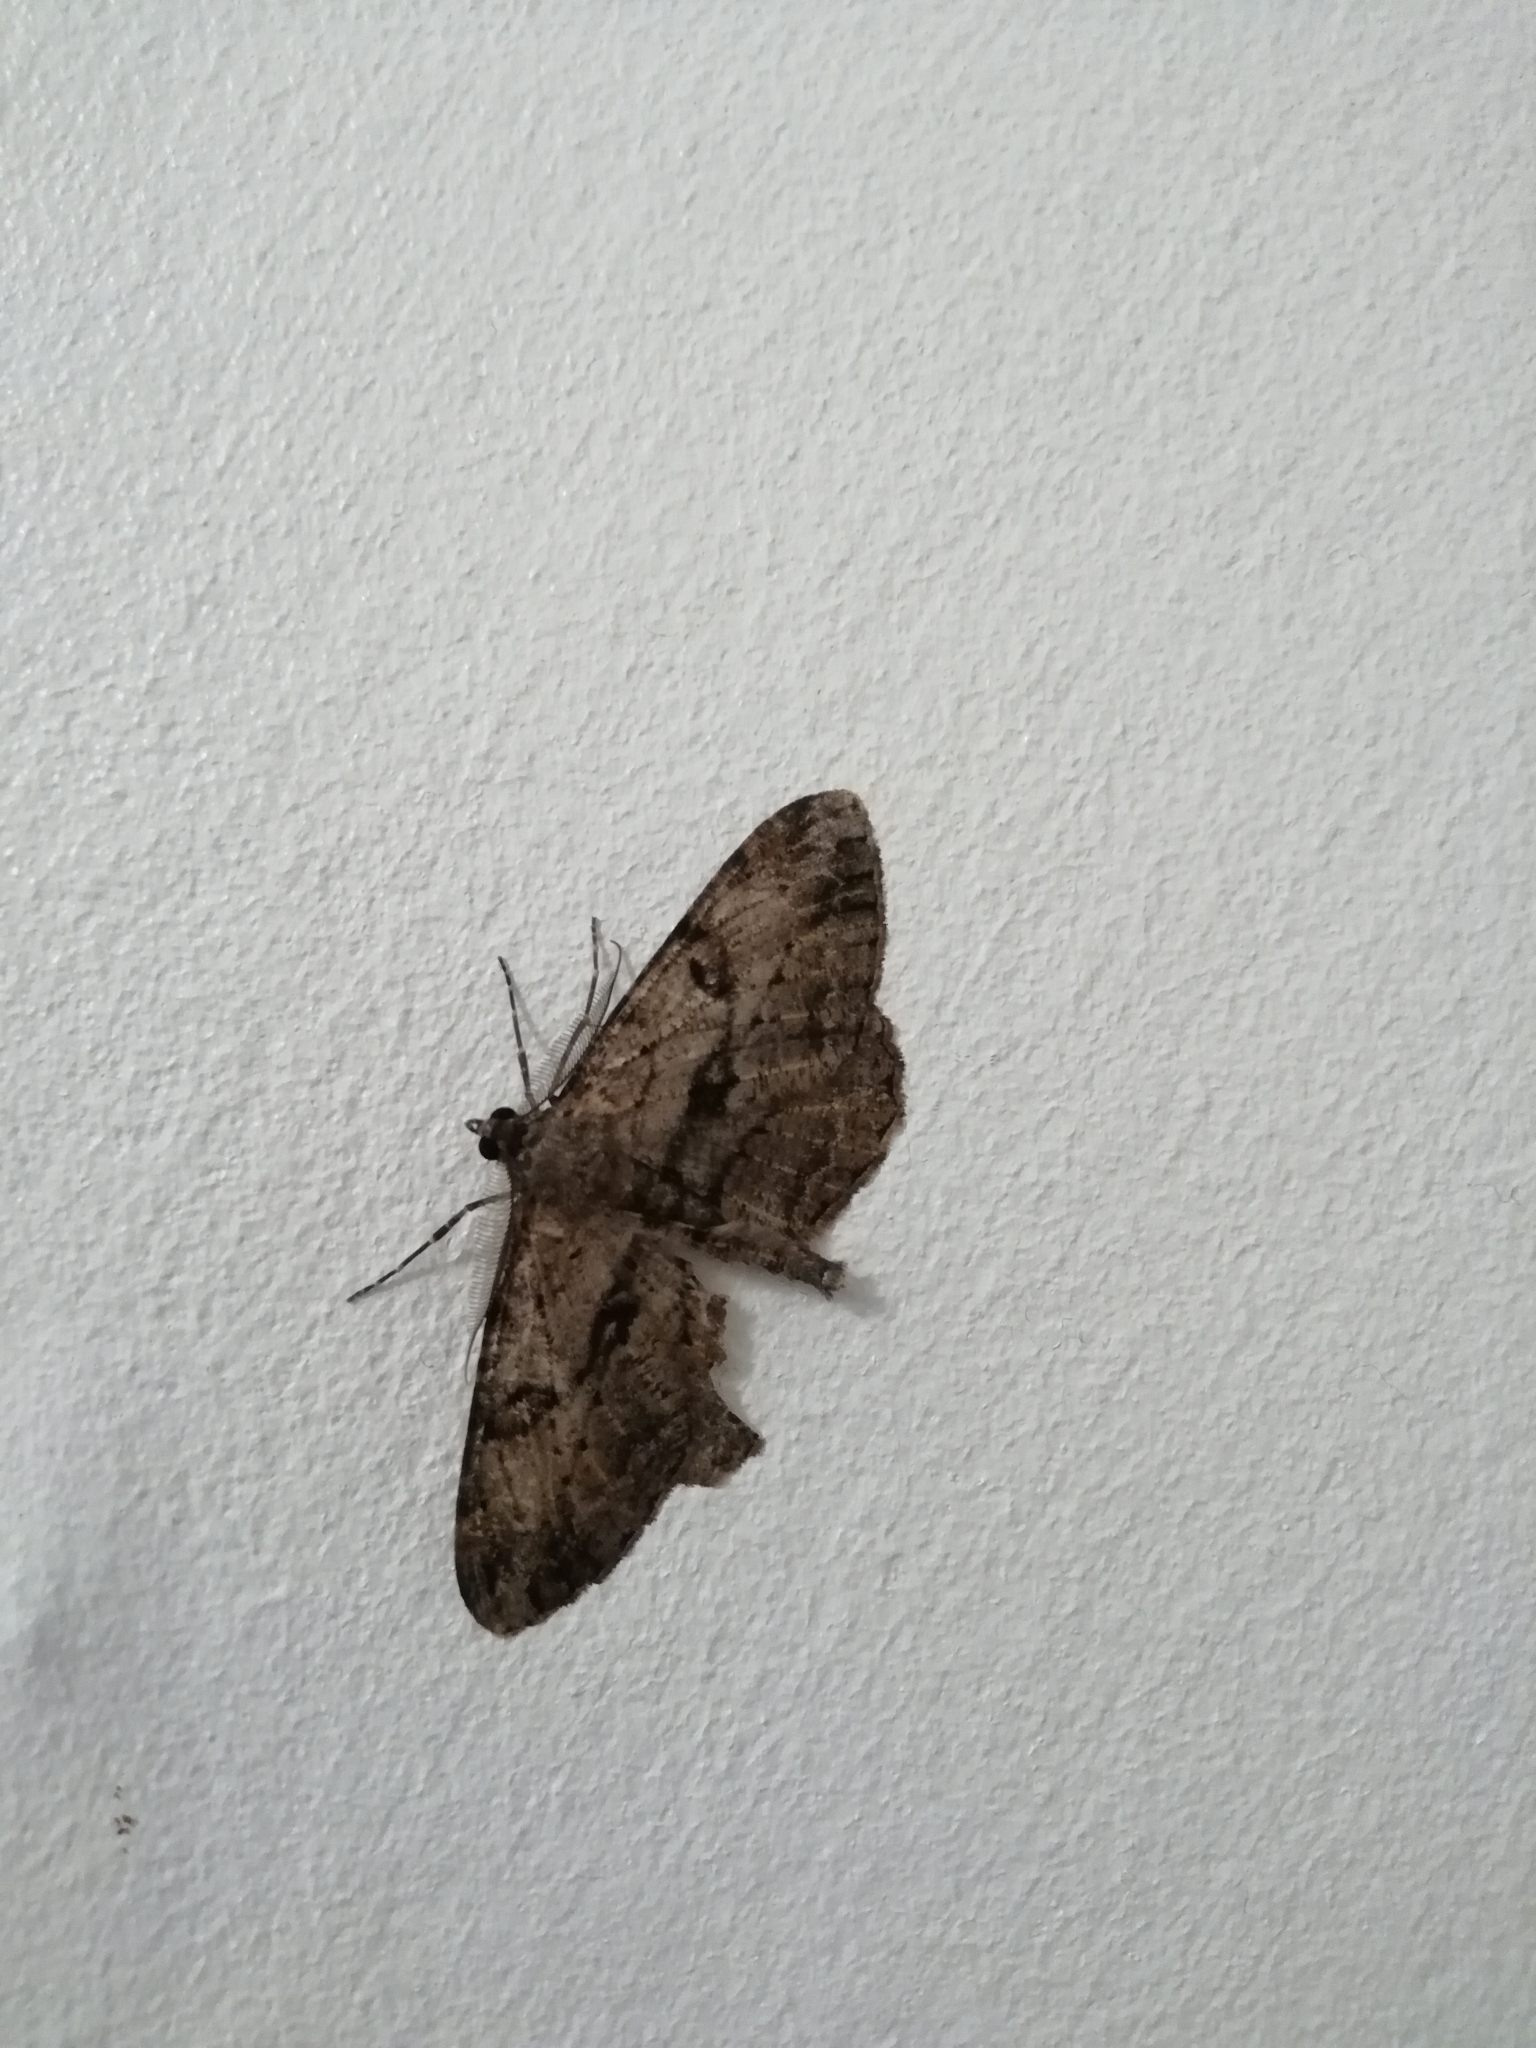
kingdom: Animalia
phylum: Arthropoda
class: Insecta
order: Lepidoptera
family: Geometridae
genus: Peribatodes
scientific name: Peribatodes rhomboidaria
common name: Willow beauty
